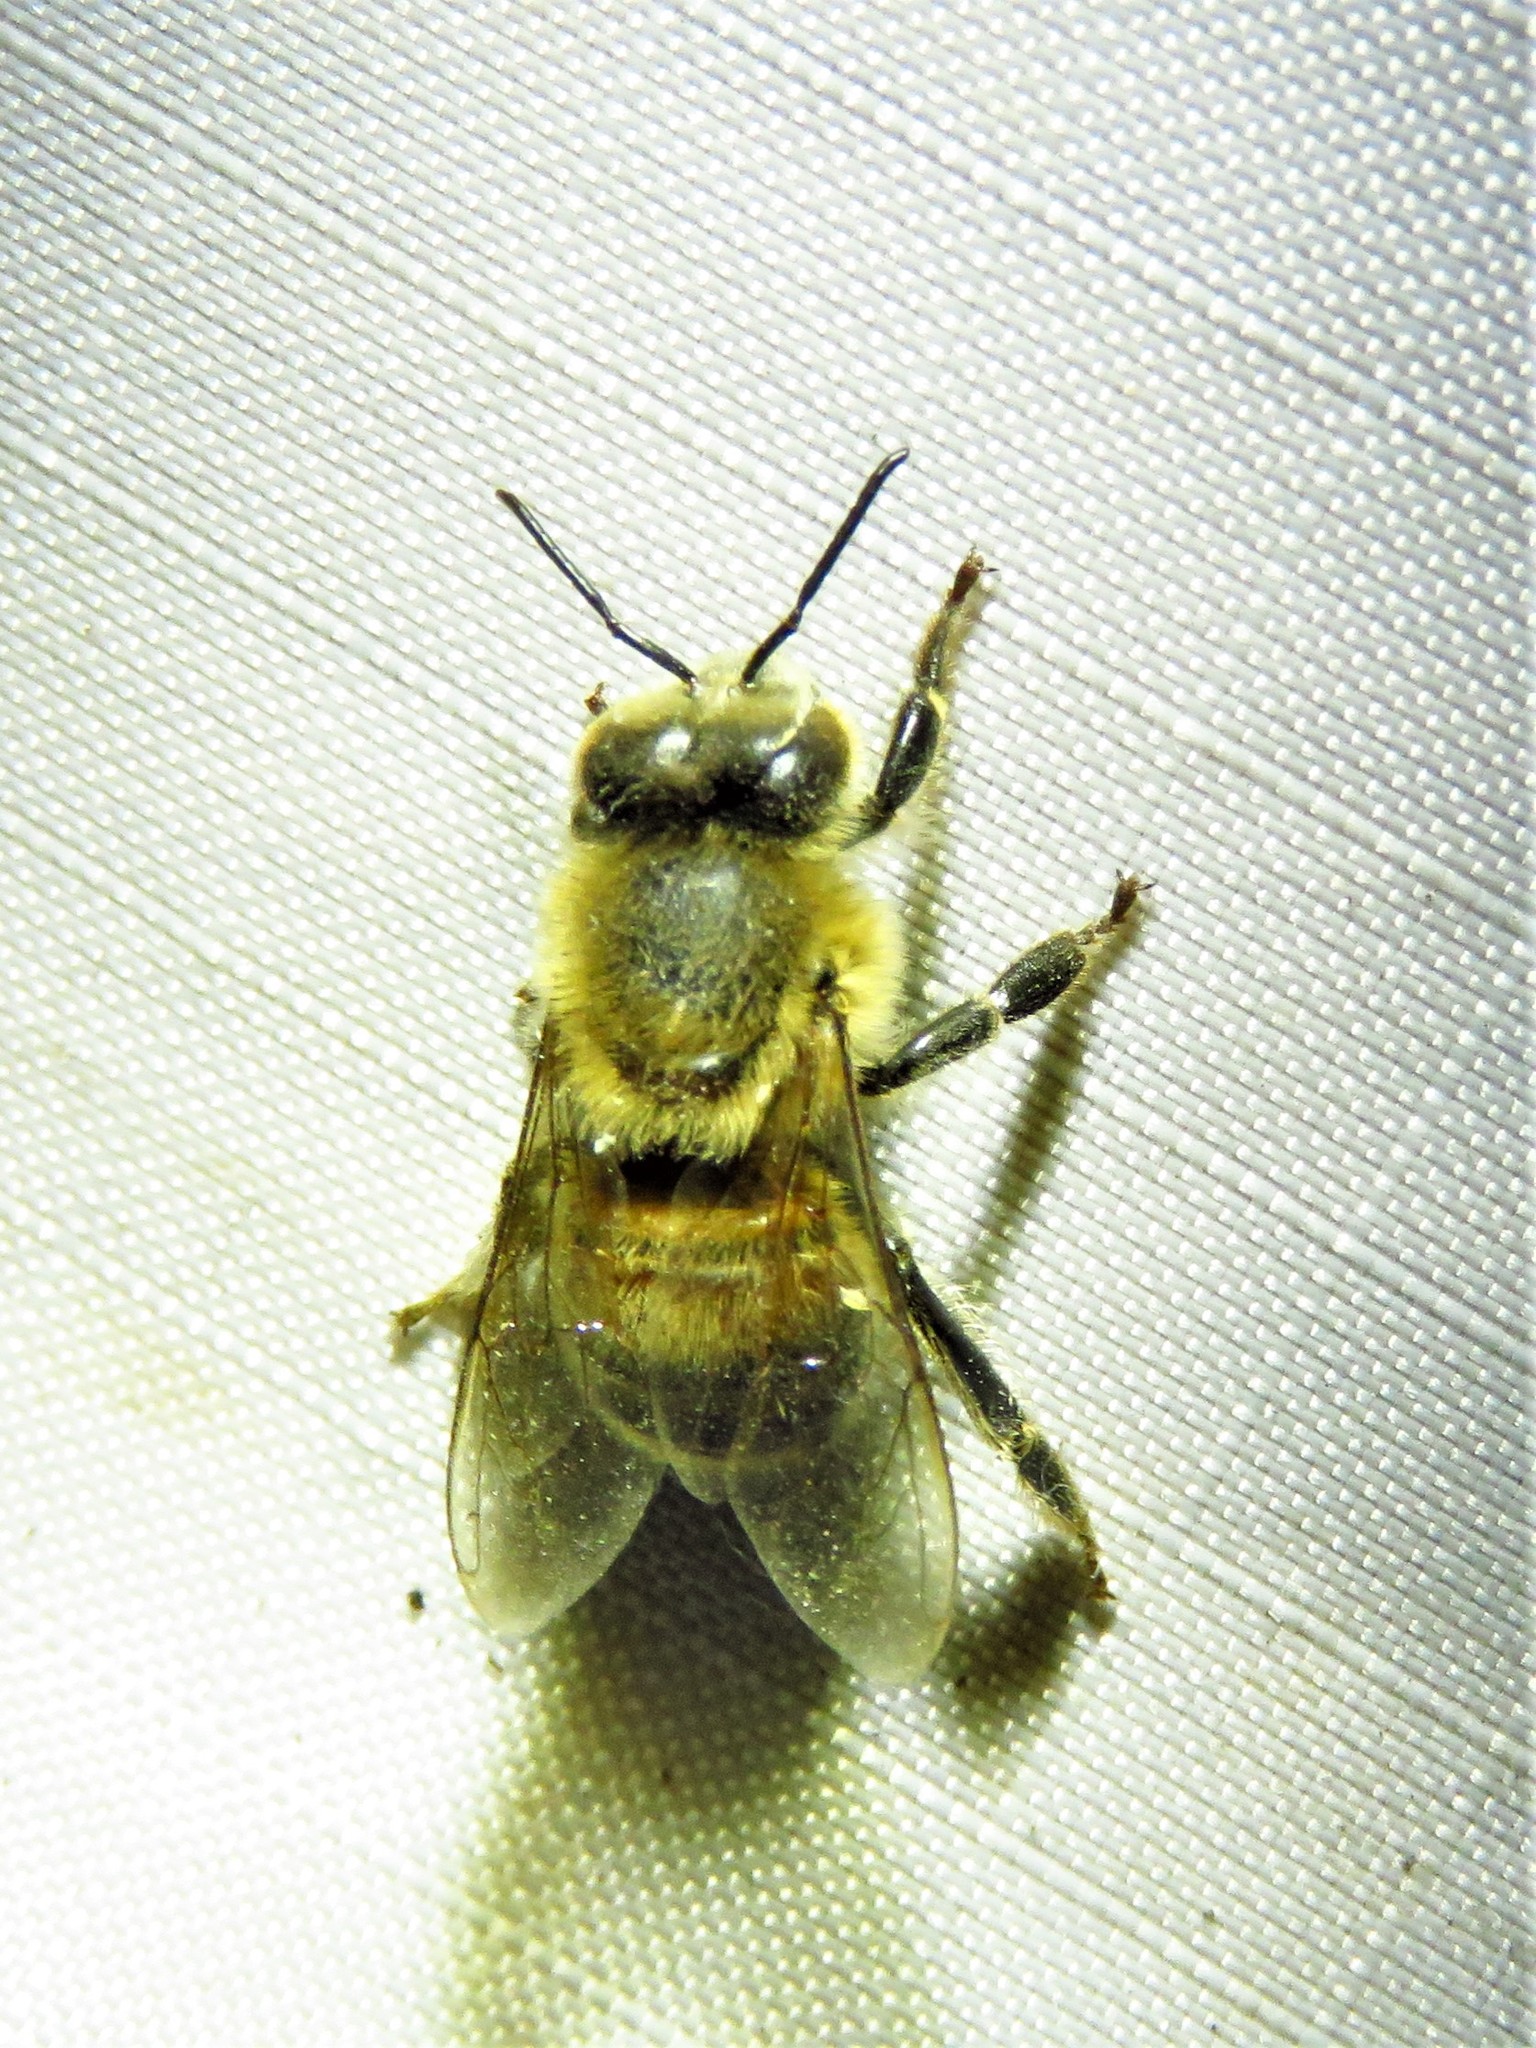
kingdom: Animalia
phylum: Arthropoda
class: Insecta
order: Hymenoptera
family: Apidae
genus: Apis
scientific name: Apis mellifera
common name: Honey bee
